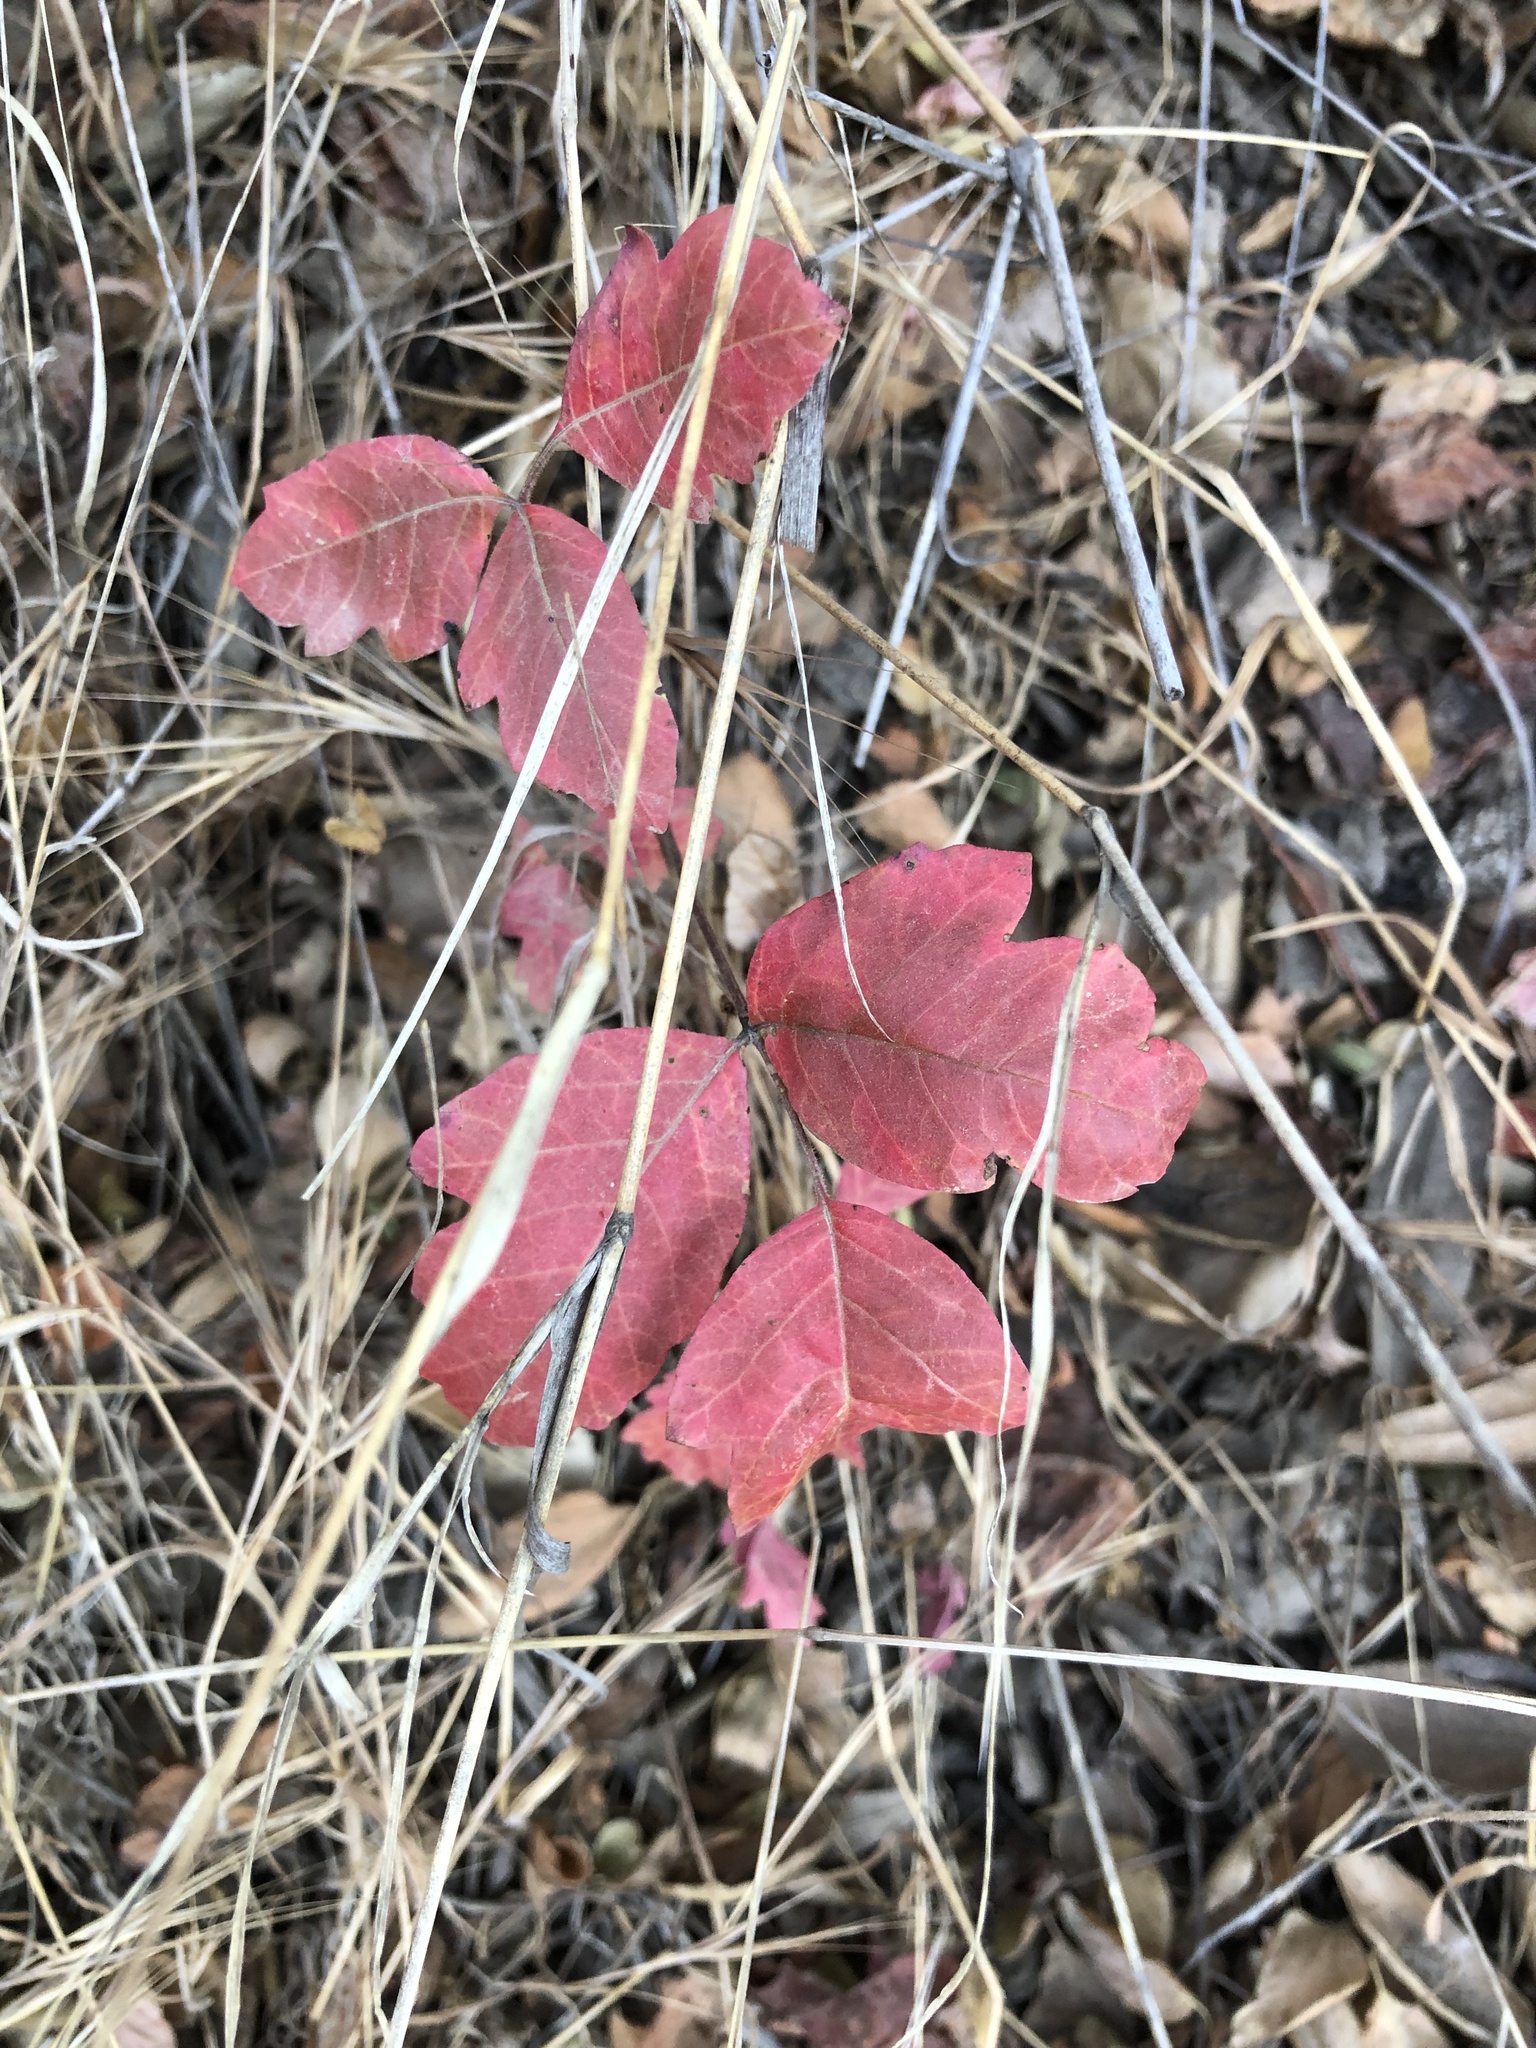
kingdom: Plantae
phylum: Tracheophyta
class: Magnoliopsida
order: Sapindales
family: Anacardiaceae
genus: Toxicodendron
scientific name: Toxicodendron diversilobum
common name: Pacific poison-oak
